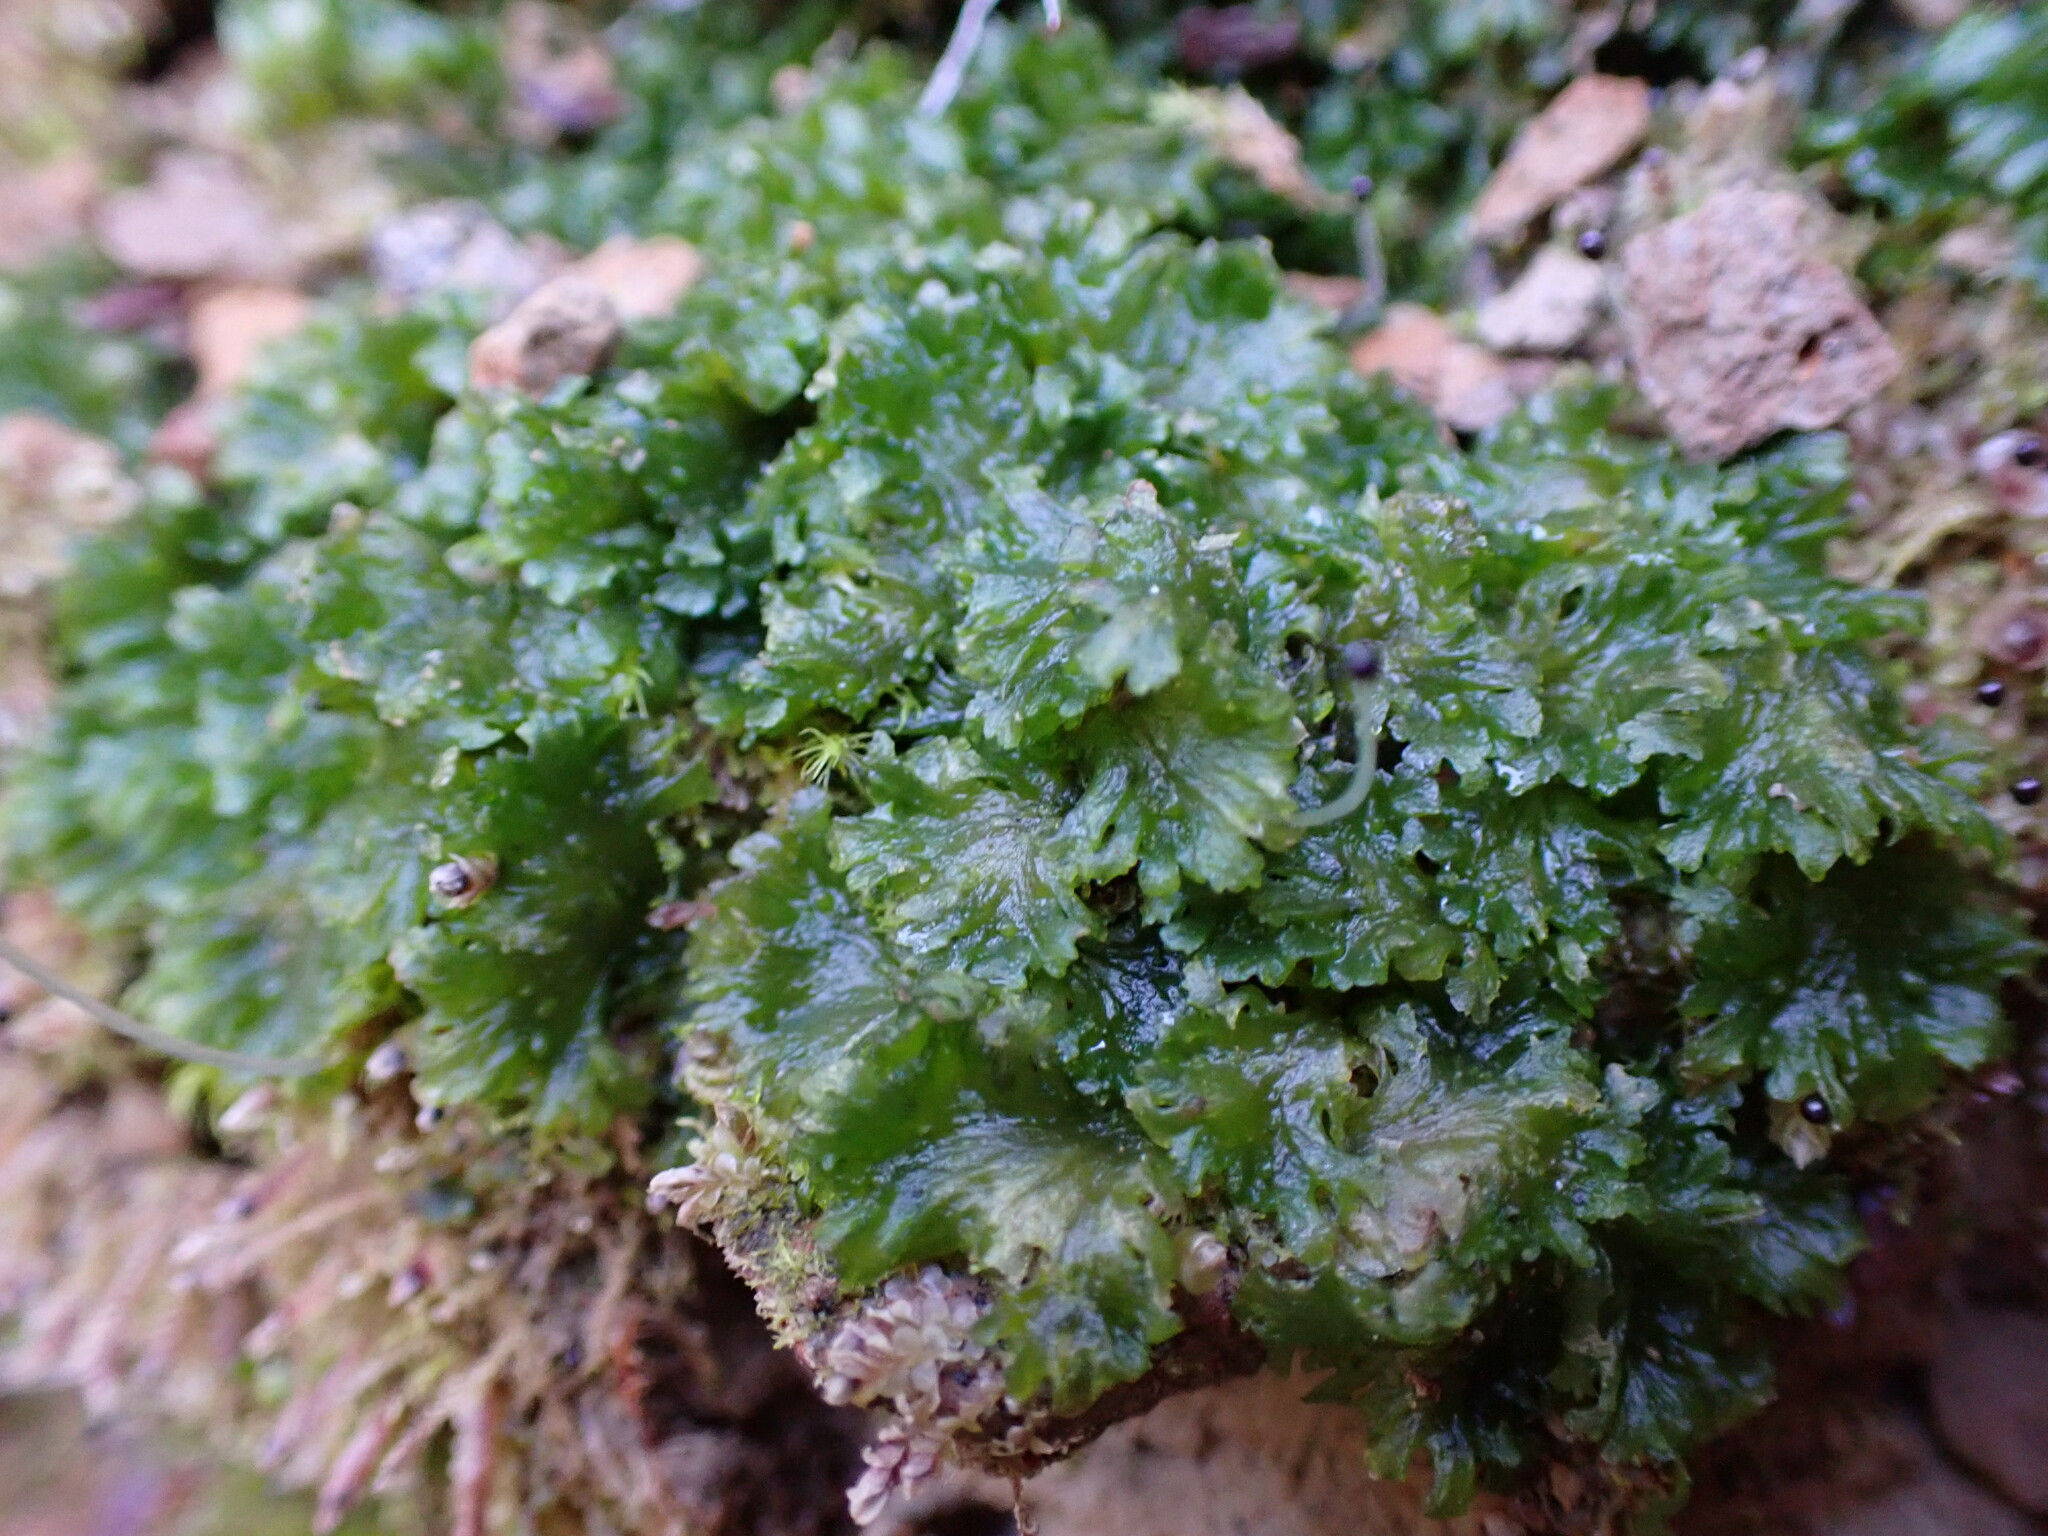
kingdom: Plantae
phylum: Anthocerotophyta
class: Anthocerotopsida
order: Anthocerotales
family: Anthocerotaceae
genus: Anthoceros
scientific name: Anthoceros fusiformis
